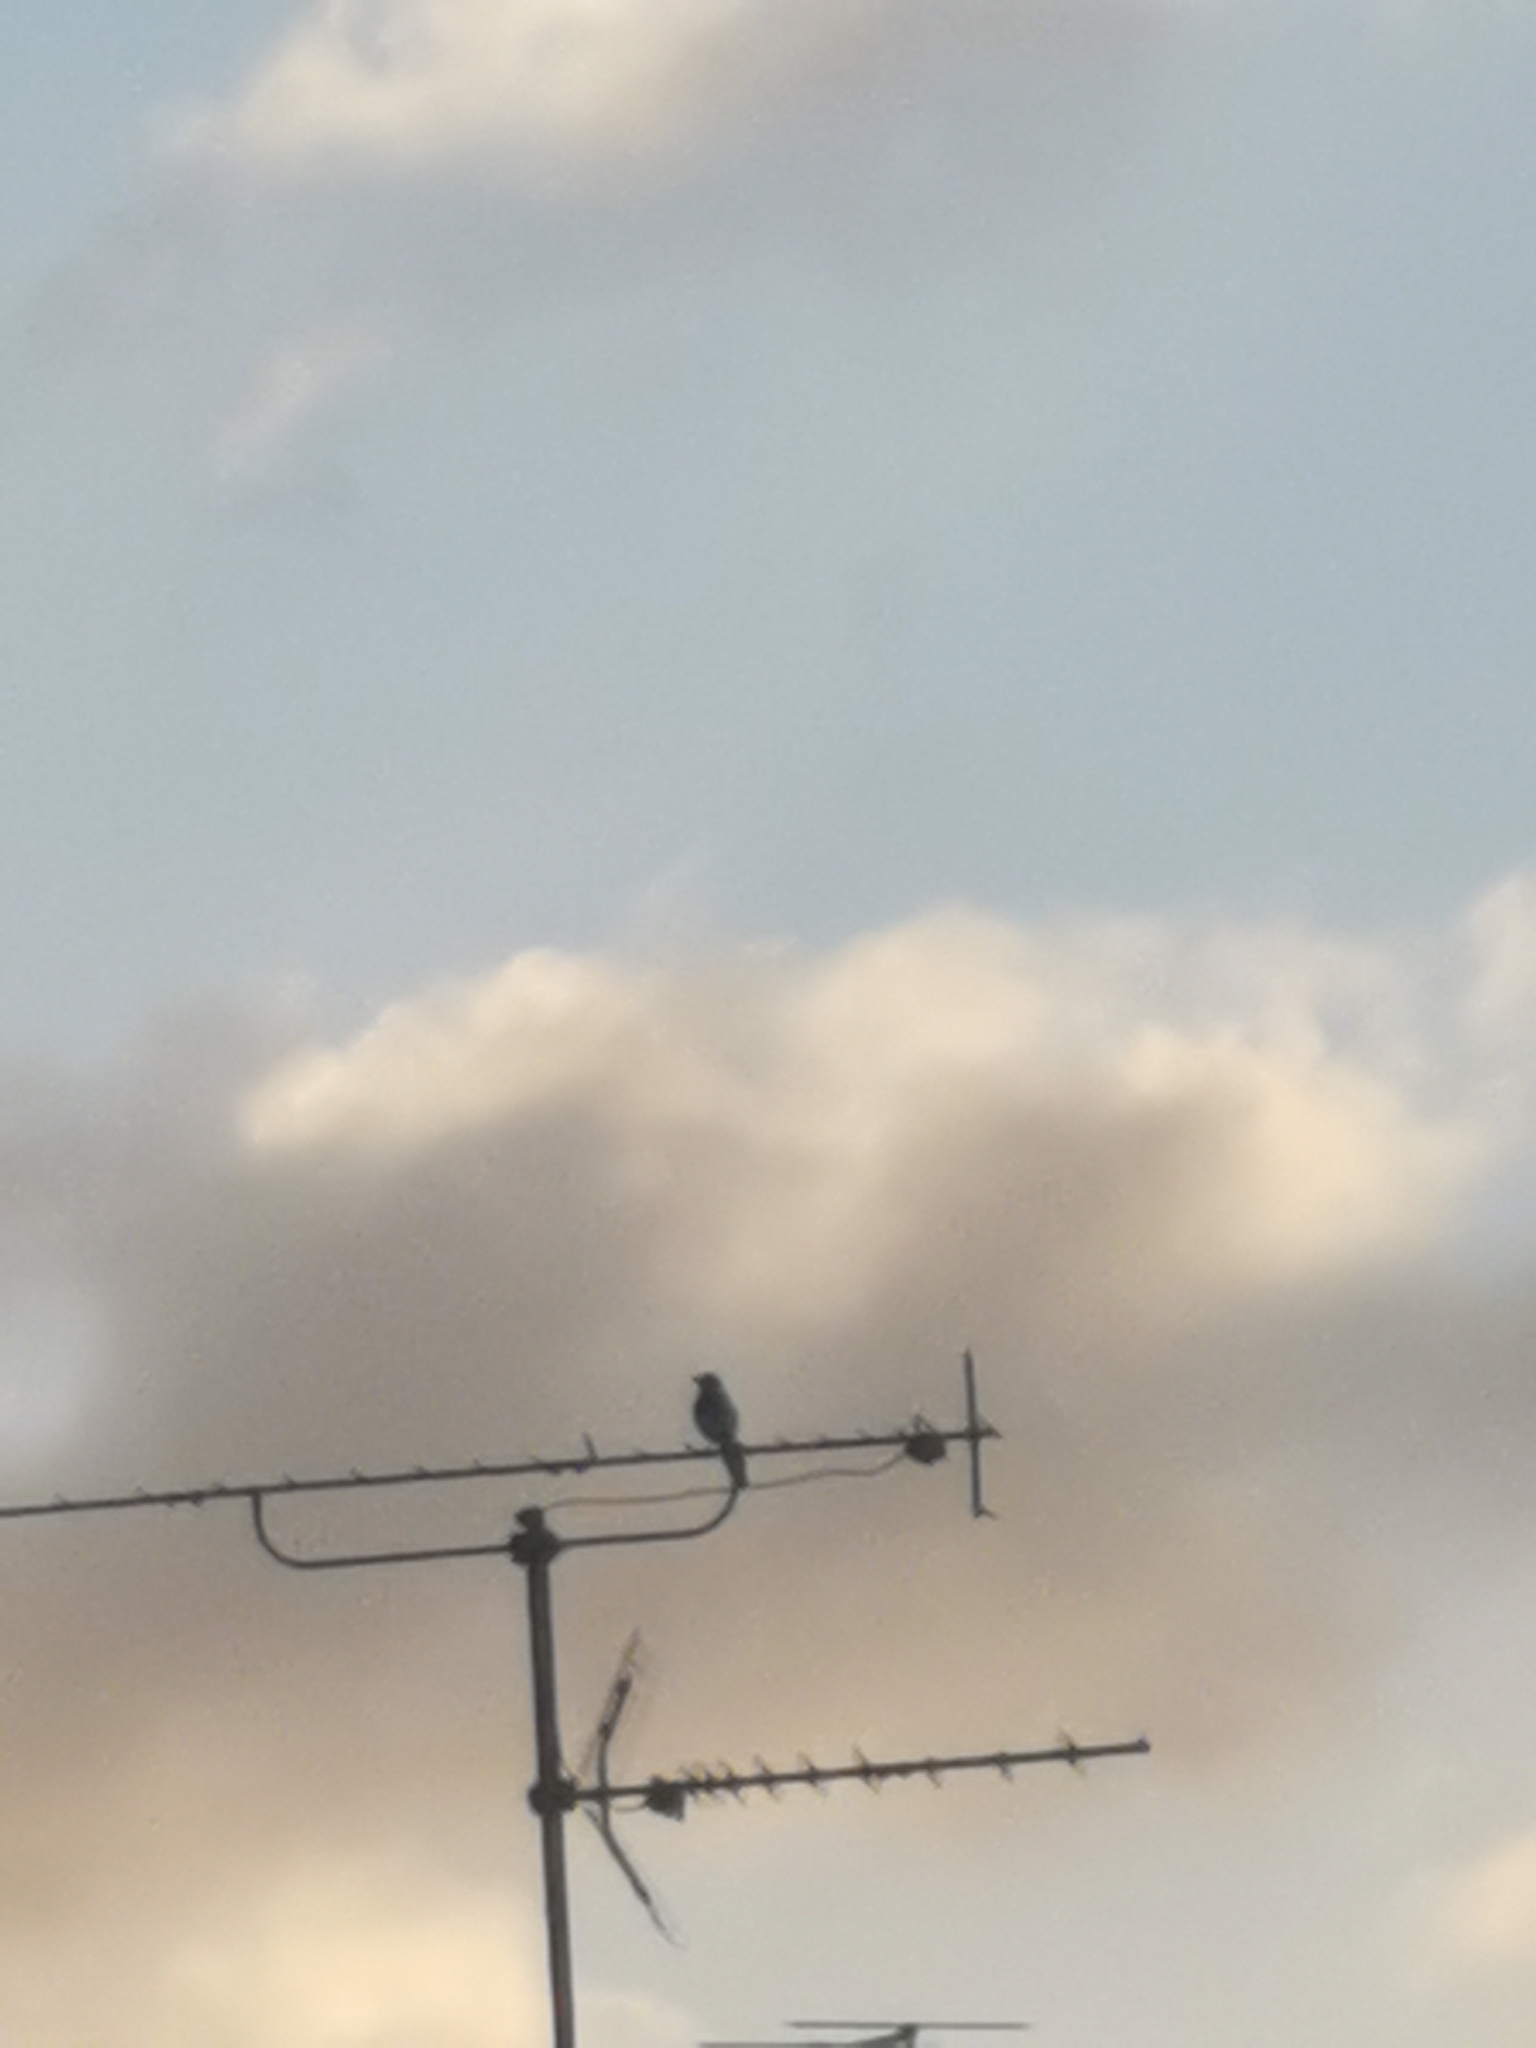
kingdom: Animalia
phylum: Chordata
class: Aves
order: Passeriformes
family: Corvidae
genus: Pica
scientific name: Pica pica
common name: Eurasian magpie
